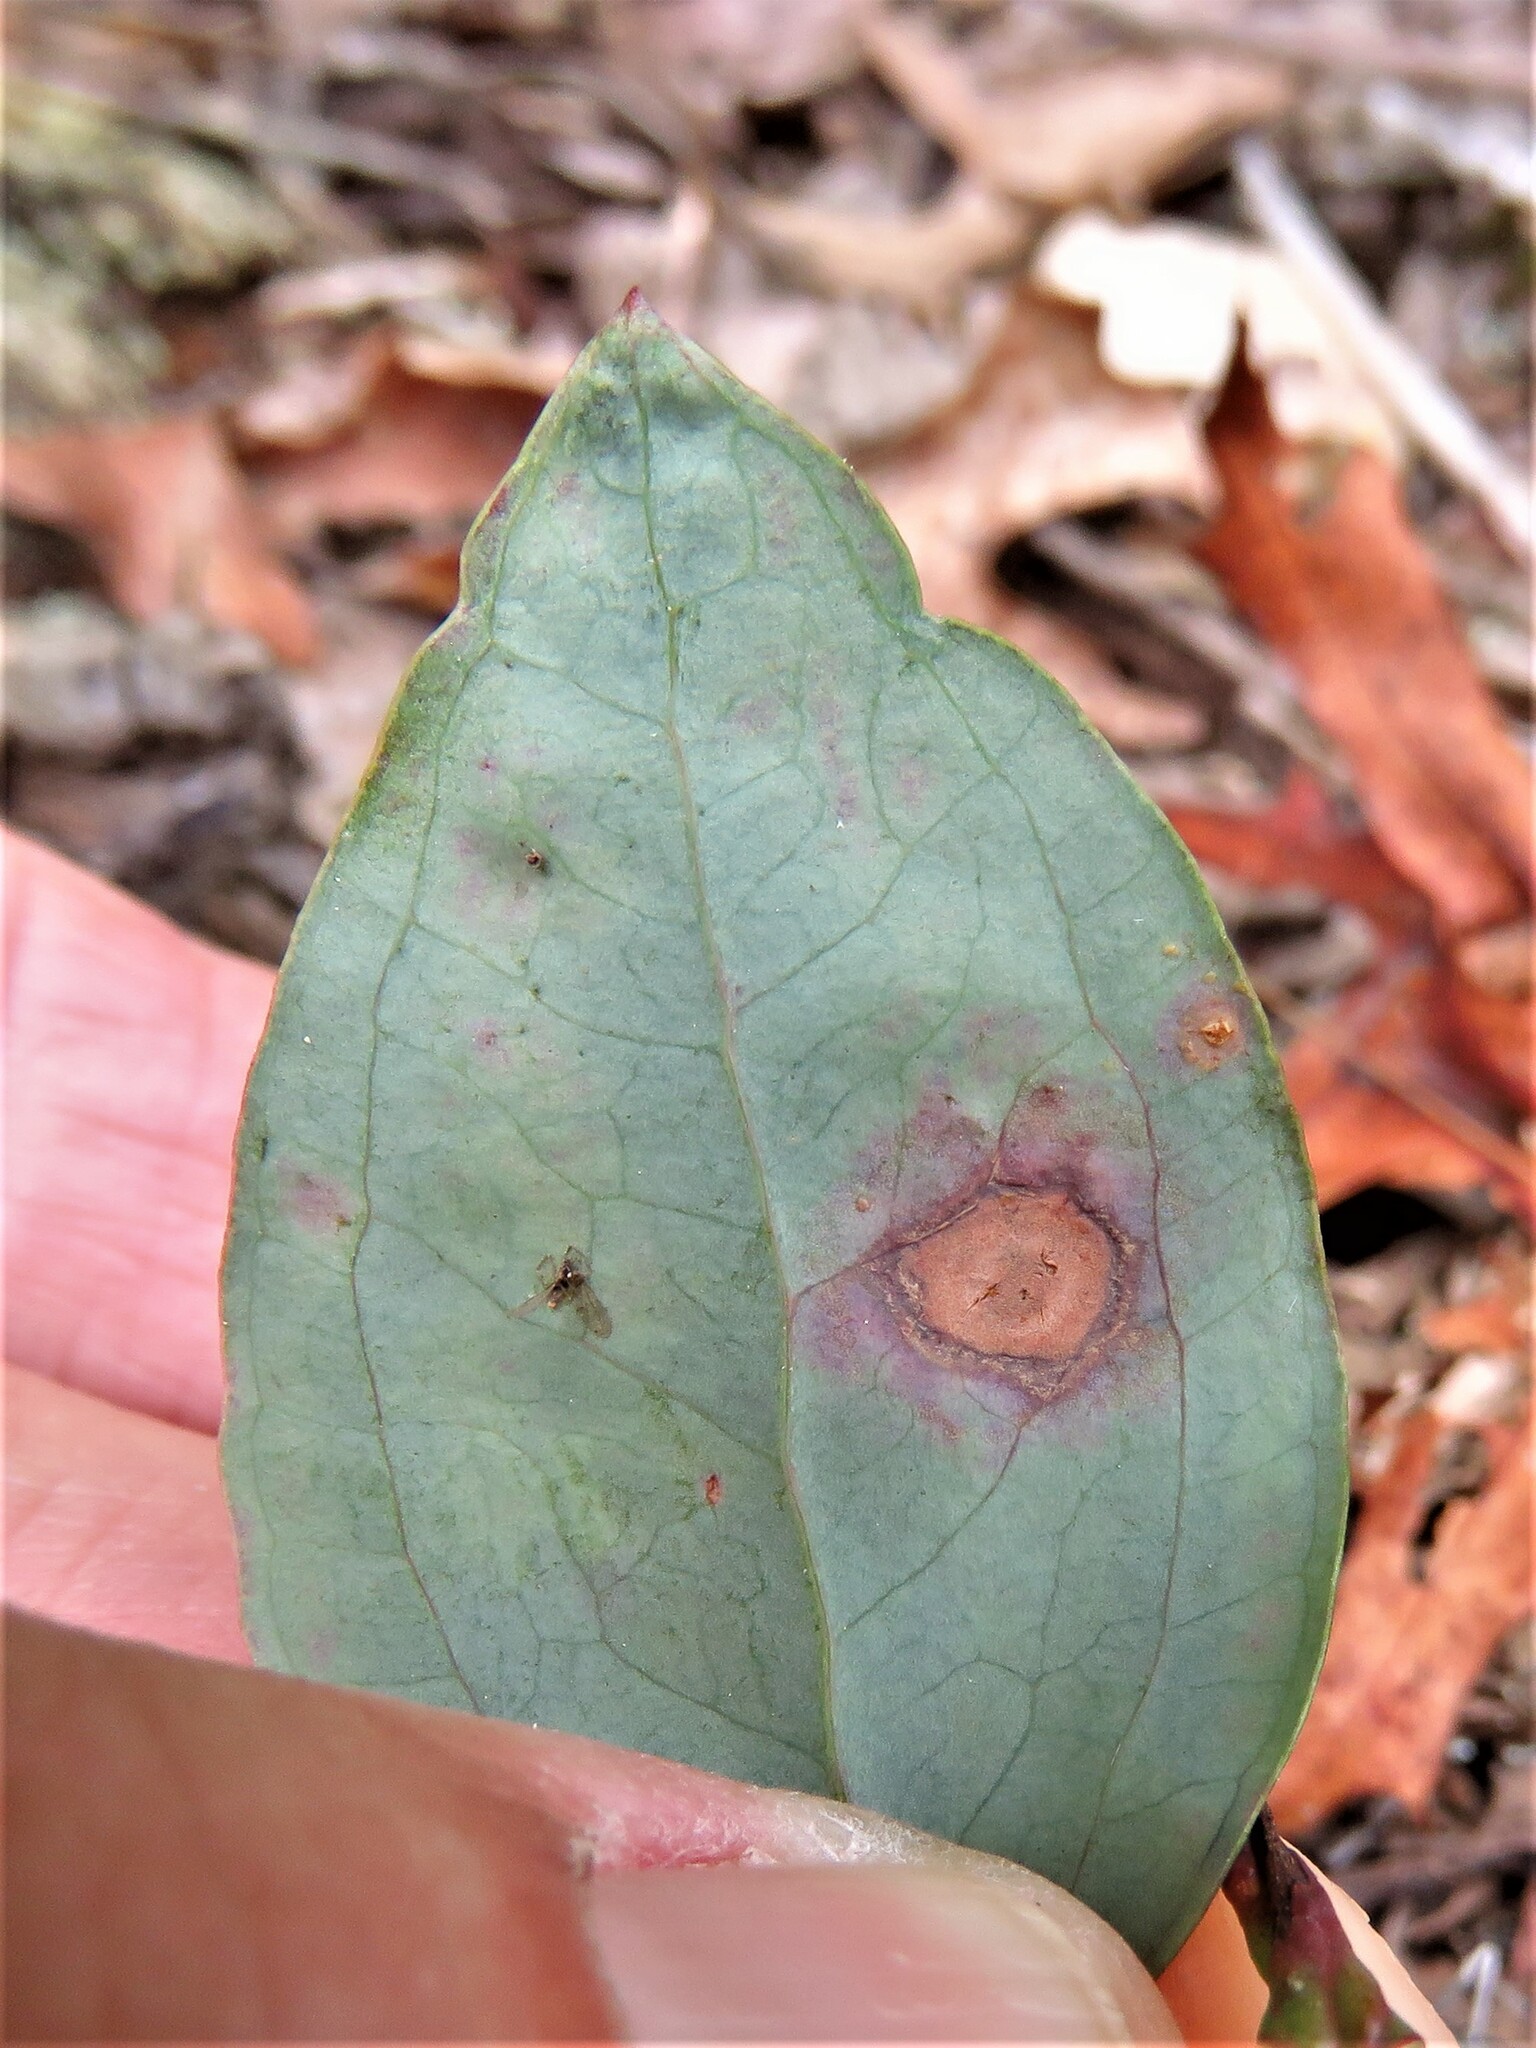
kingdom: Plantae
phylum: Tracheophyta
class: Liliopsida
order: Liliales
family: Smilacaceae
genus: Smilax
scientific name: Smilax glauca
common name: Cat greenbrier
